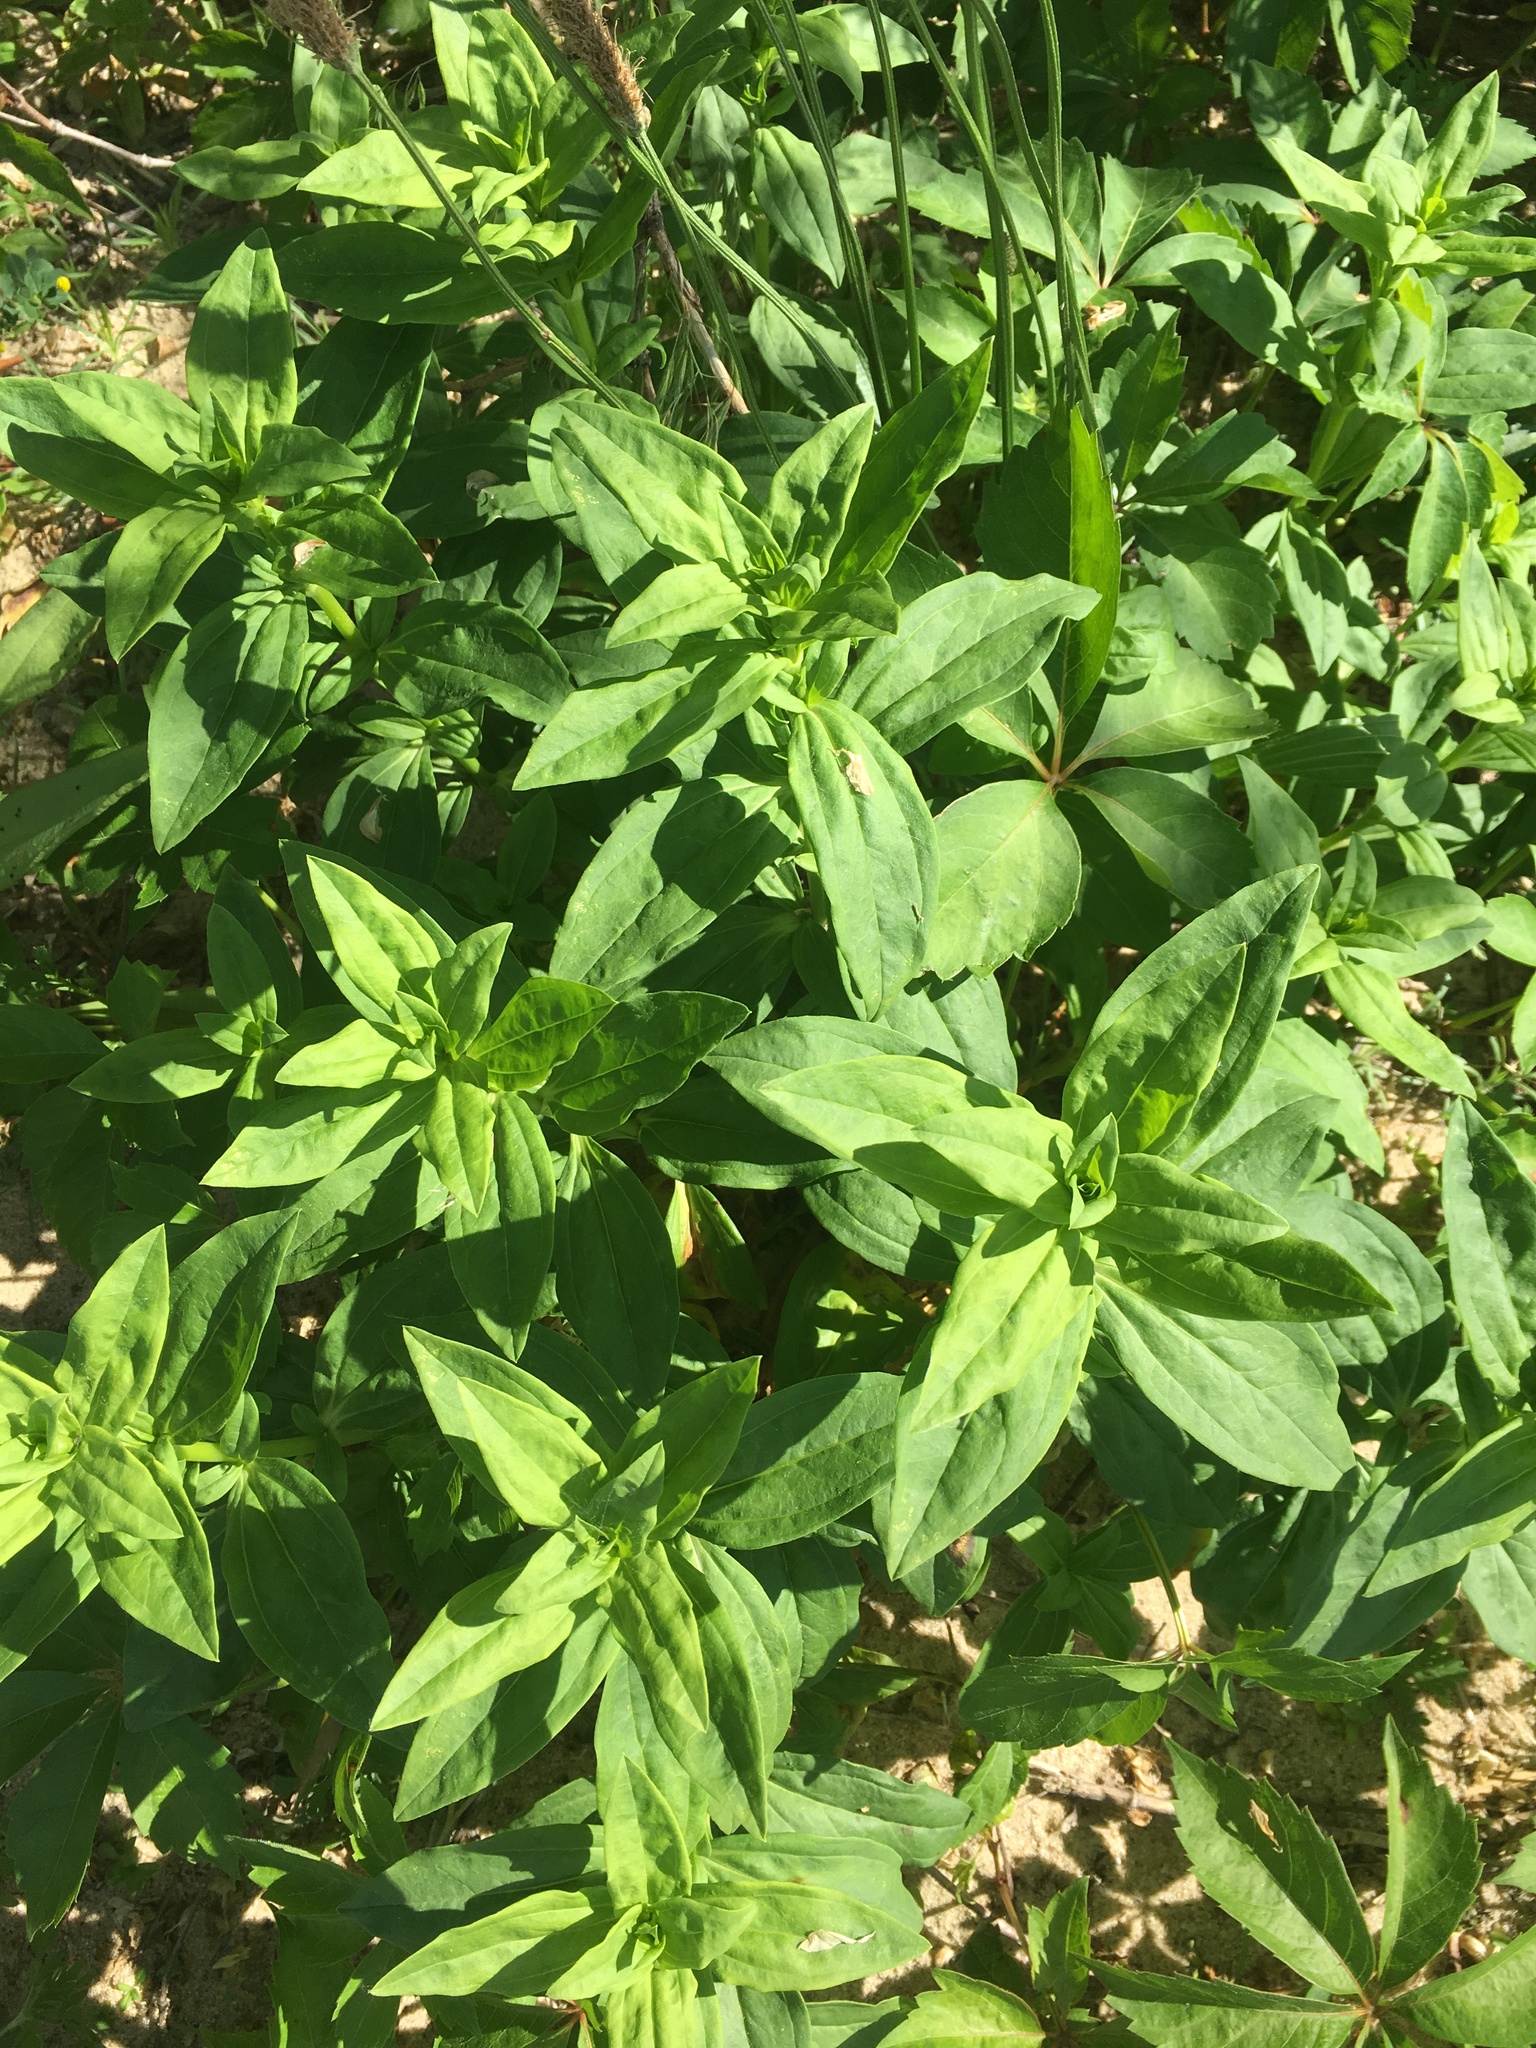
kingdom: Plantae
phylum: Tracheophyta
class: Magnoliopsida
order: Caryophyllales
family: Caryophyllaceae
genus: Saponaria
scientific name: Saponaria officinalis
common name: Soapwort
